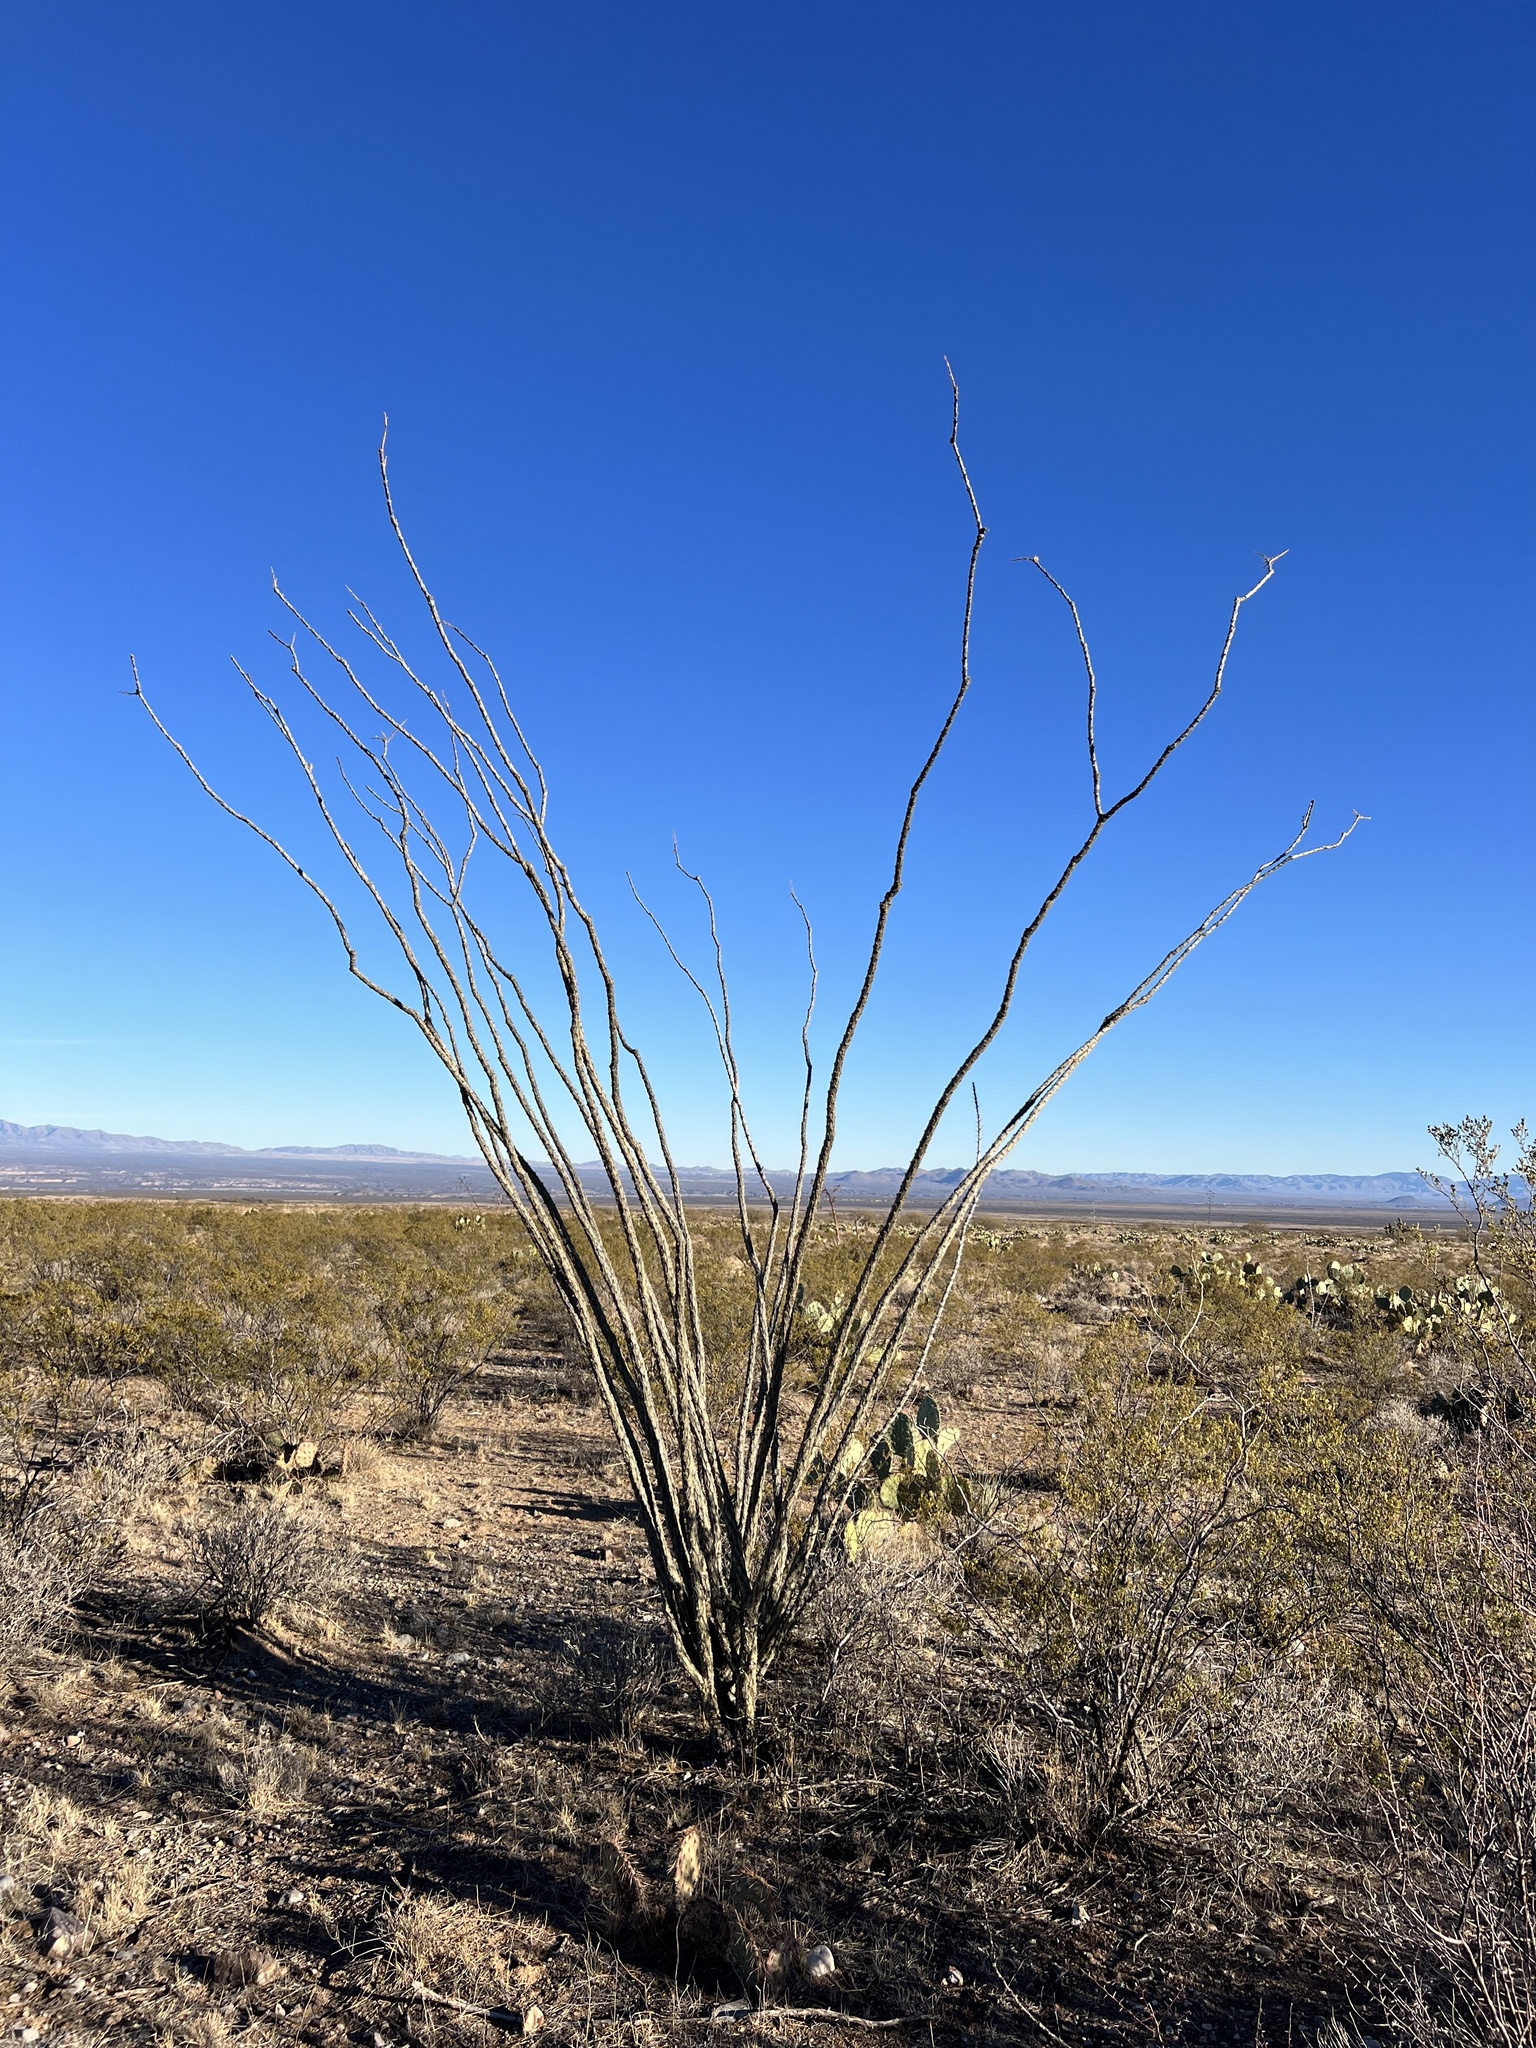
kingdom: Plantae
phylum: Tracheophyta
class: Magnoliopsida
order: Ericales
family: Fouquieriaceae
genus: Fouquieria
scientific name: Fouquieria splendens
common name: Vine-cactus
